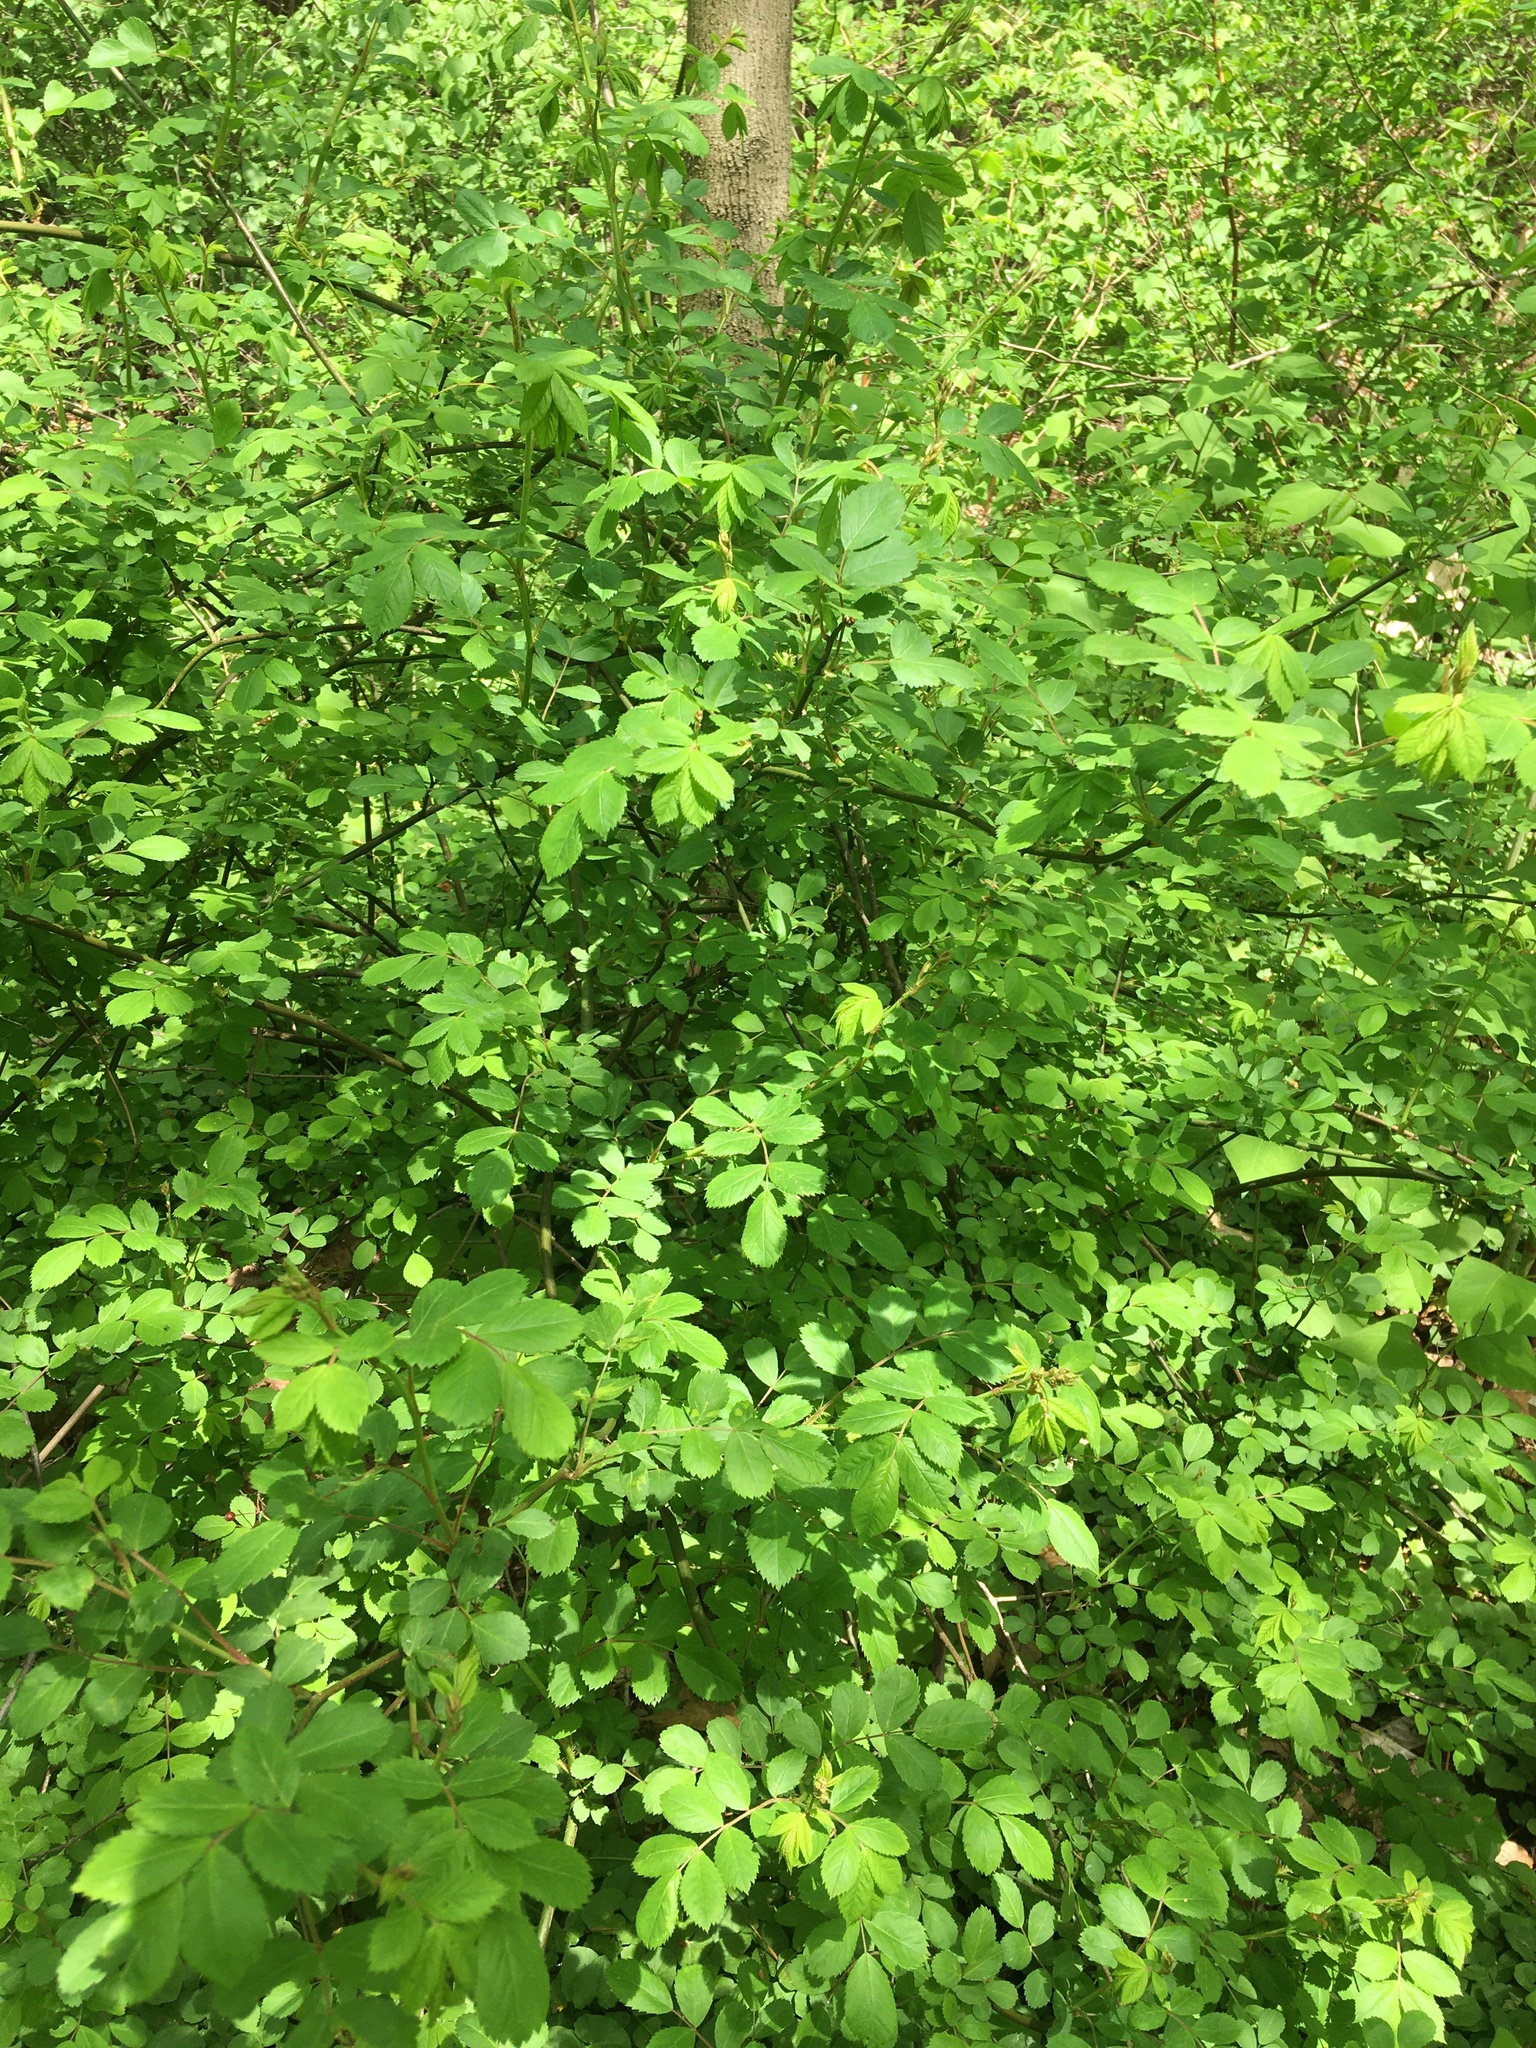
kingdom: Plantae
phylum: Tracheophyta
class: Magnoliopsida
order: Rosales
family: Rosaceae
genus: Rosa
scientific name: Rosa multiflora
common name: Multiflora rose
